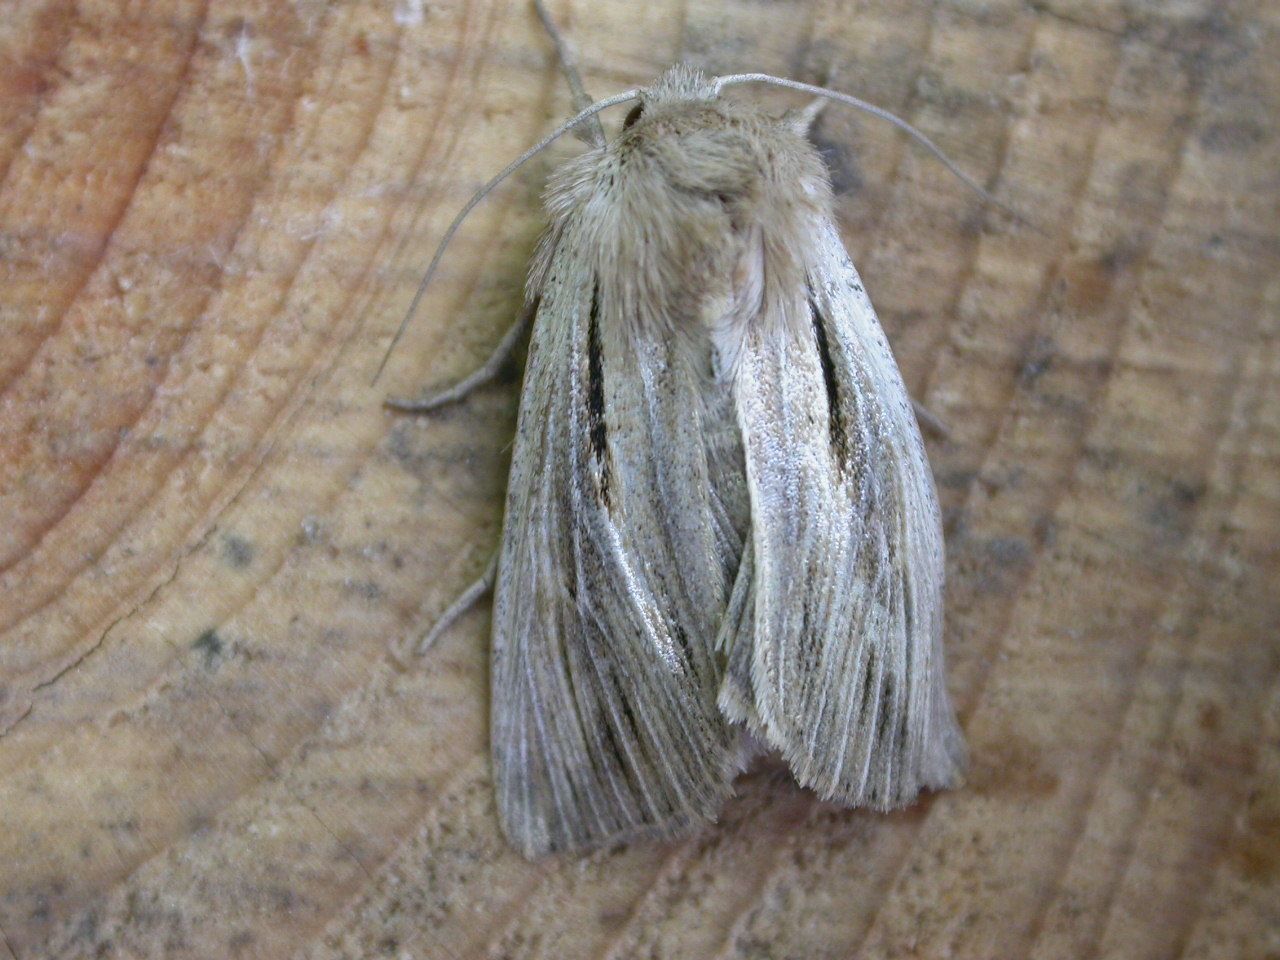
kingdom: Animalia
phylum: Arthropoda
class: Insecta
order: Lepidoptera
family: Noctuidae
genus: Leucania
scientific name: Leucania comma
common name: Shoulder-striped wainscot
